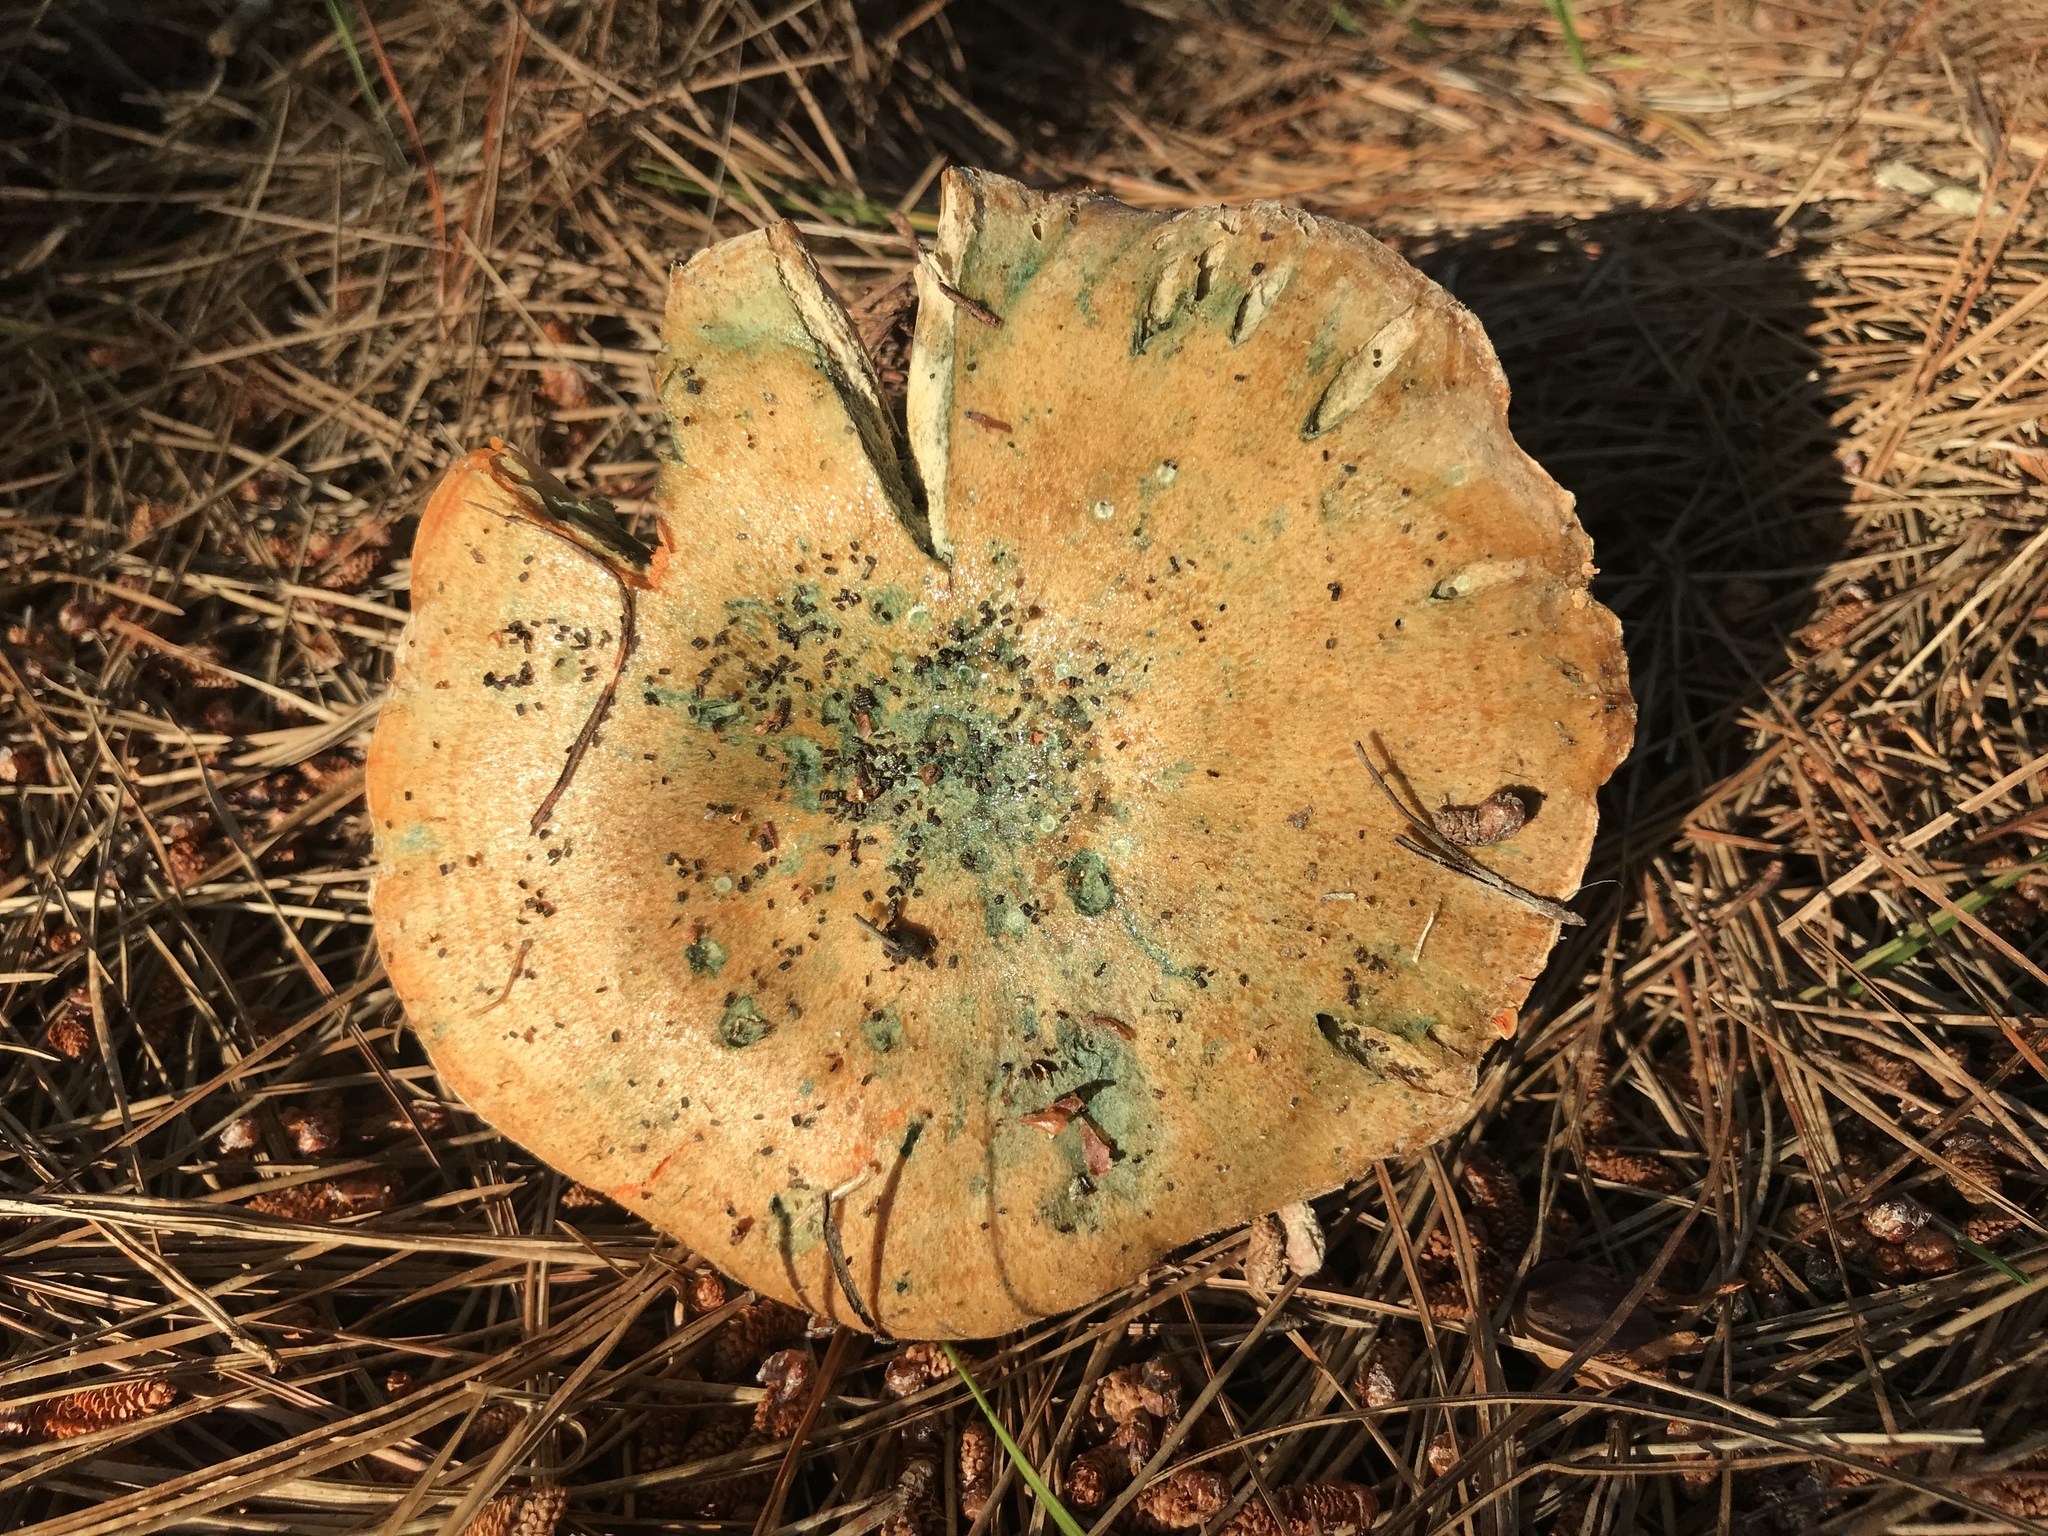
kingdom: Fungi
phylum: Basidiomycota
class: Agaricomycetes
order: Russulales
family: Russulaceae
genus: Lactarius
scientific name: Lactarius deliciosus
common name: Saffron milk-cap
